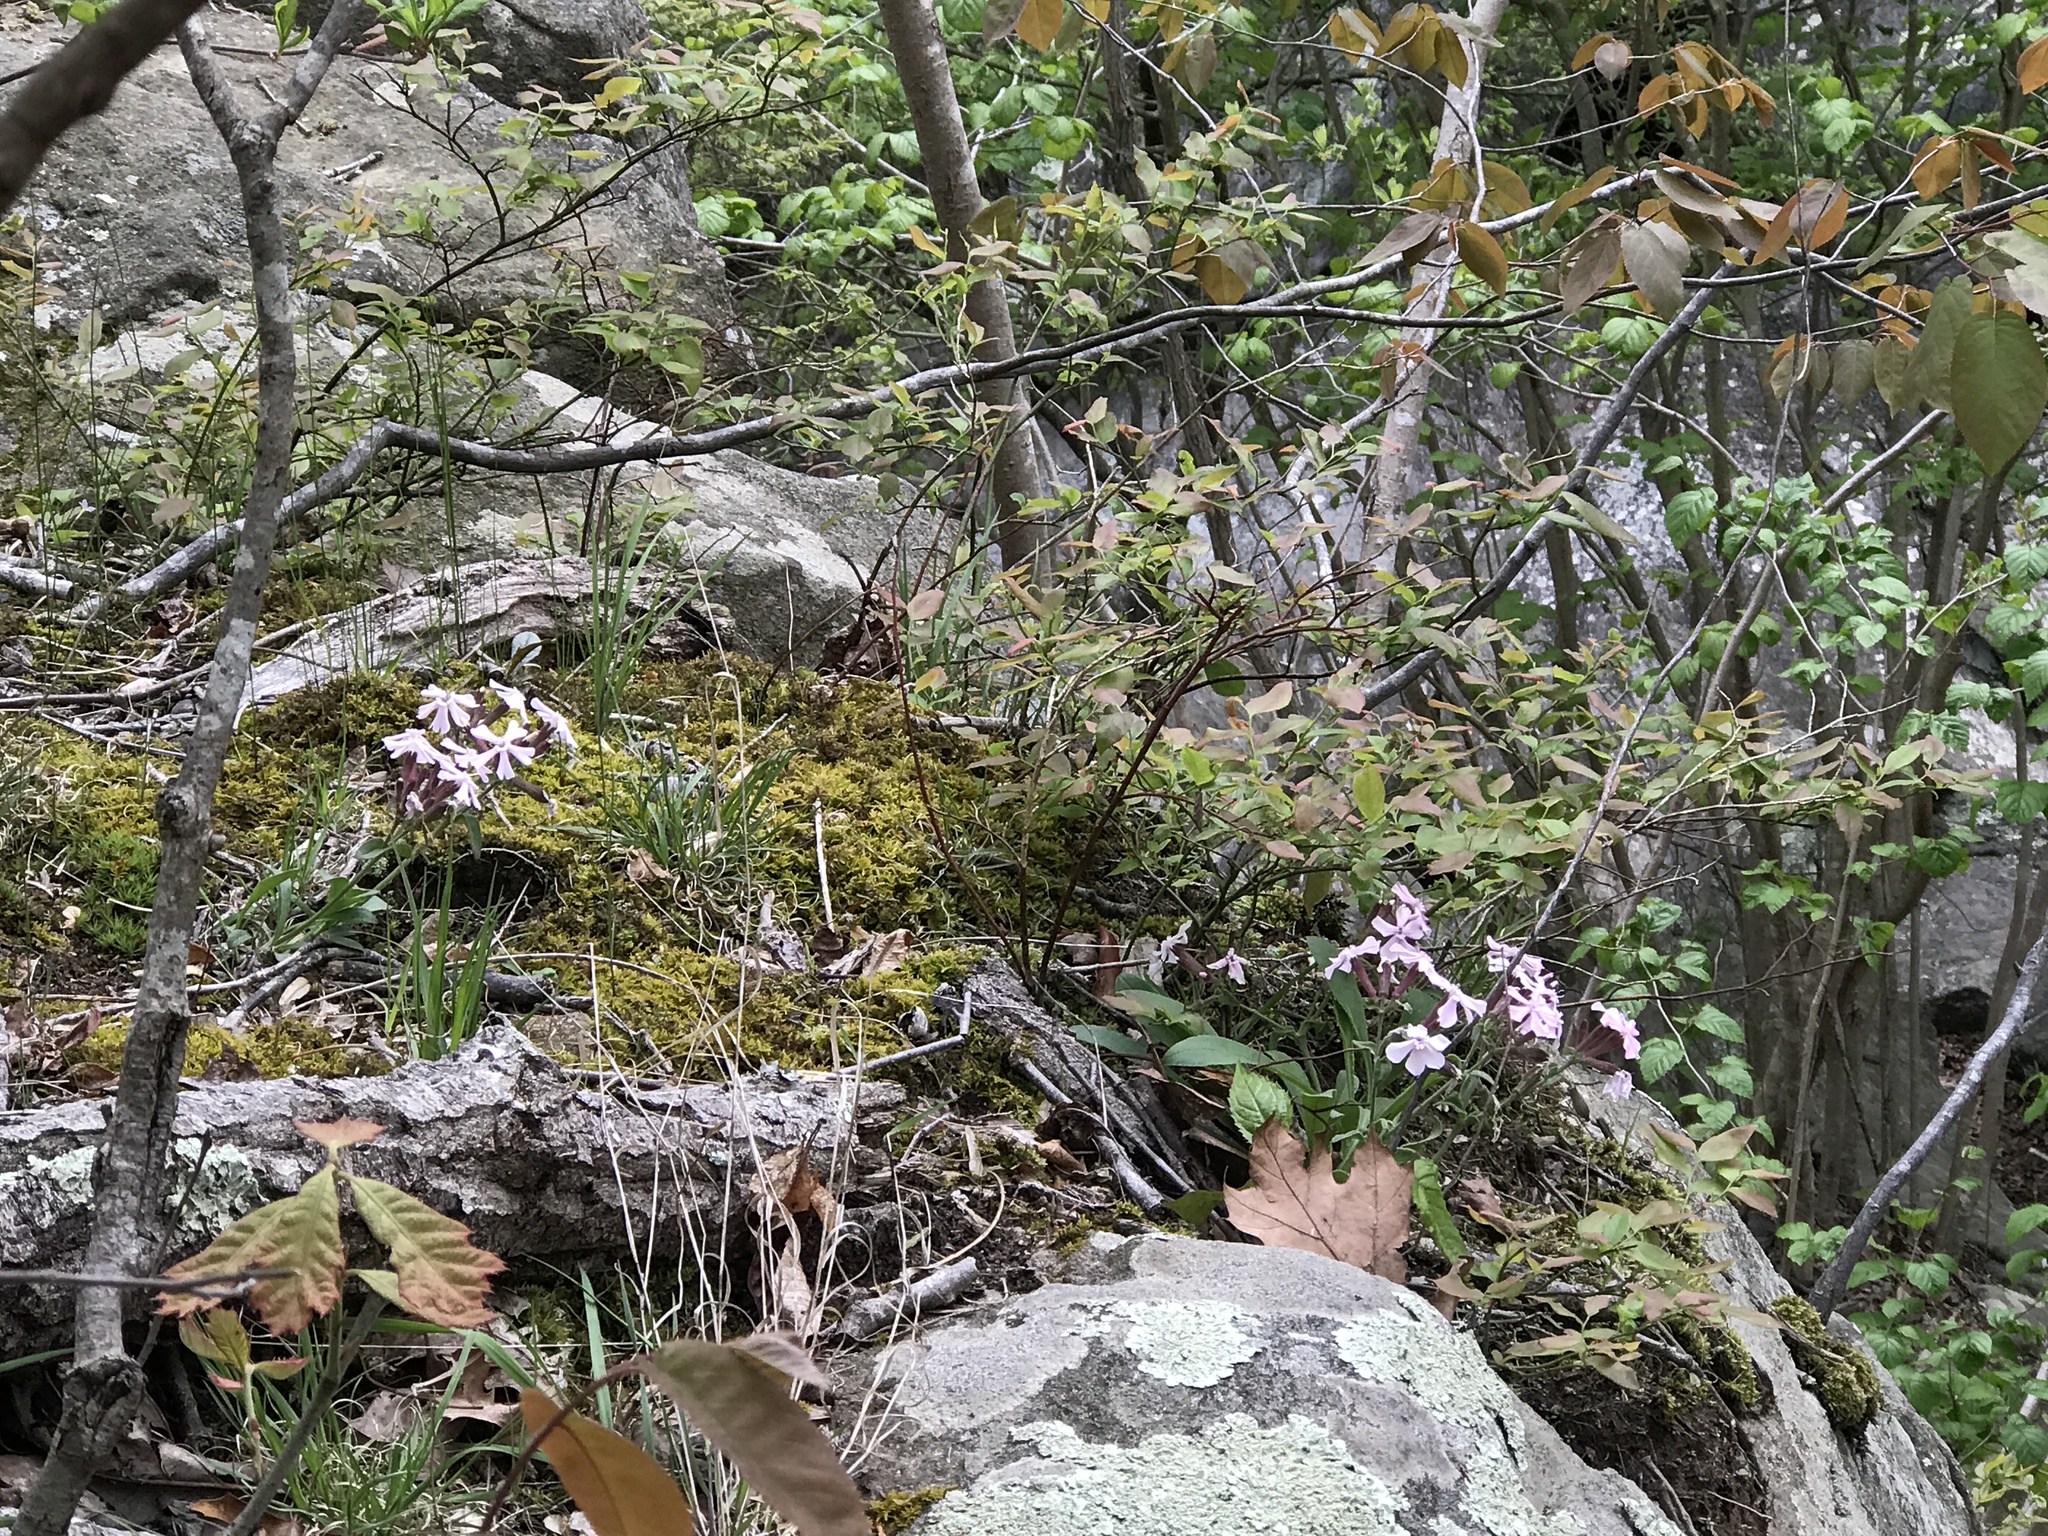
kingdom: Plantae
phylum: Tracheophyta
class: Magnoliopsida
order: Caryophyllales
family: Caryophyllaceae
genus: Silene
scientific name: Silene caroliniana
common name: Sticky catchfly
